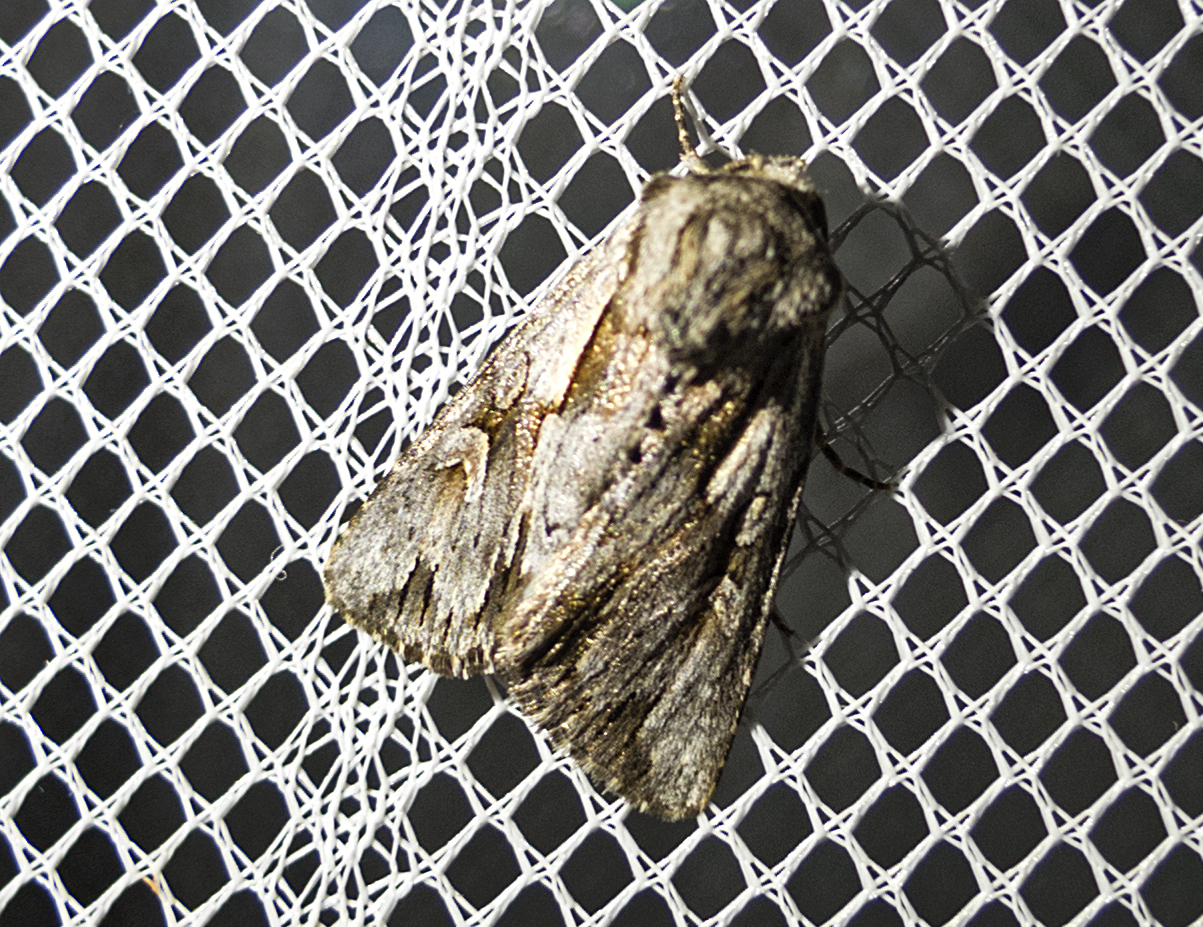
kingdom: Animalia
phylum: Arthropoda
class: Insecta
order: Lepidoptera
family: Noctuidae
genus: Chloantha
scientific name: Chloantha hyperici
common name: Pale-shouldered cloud
